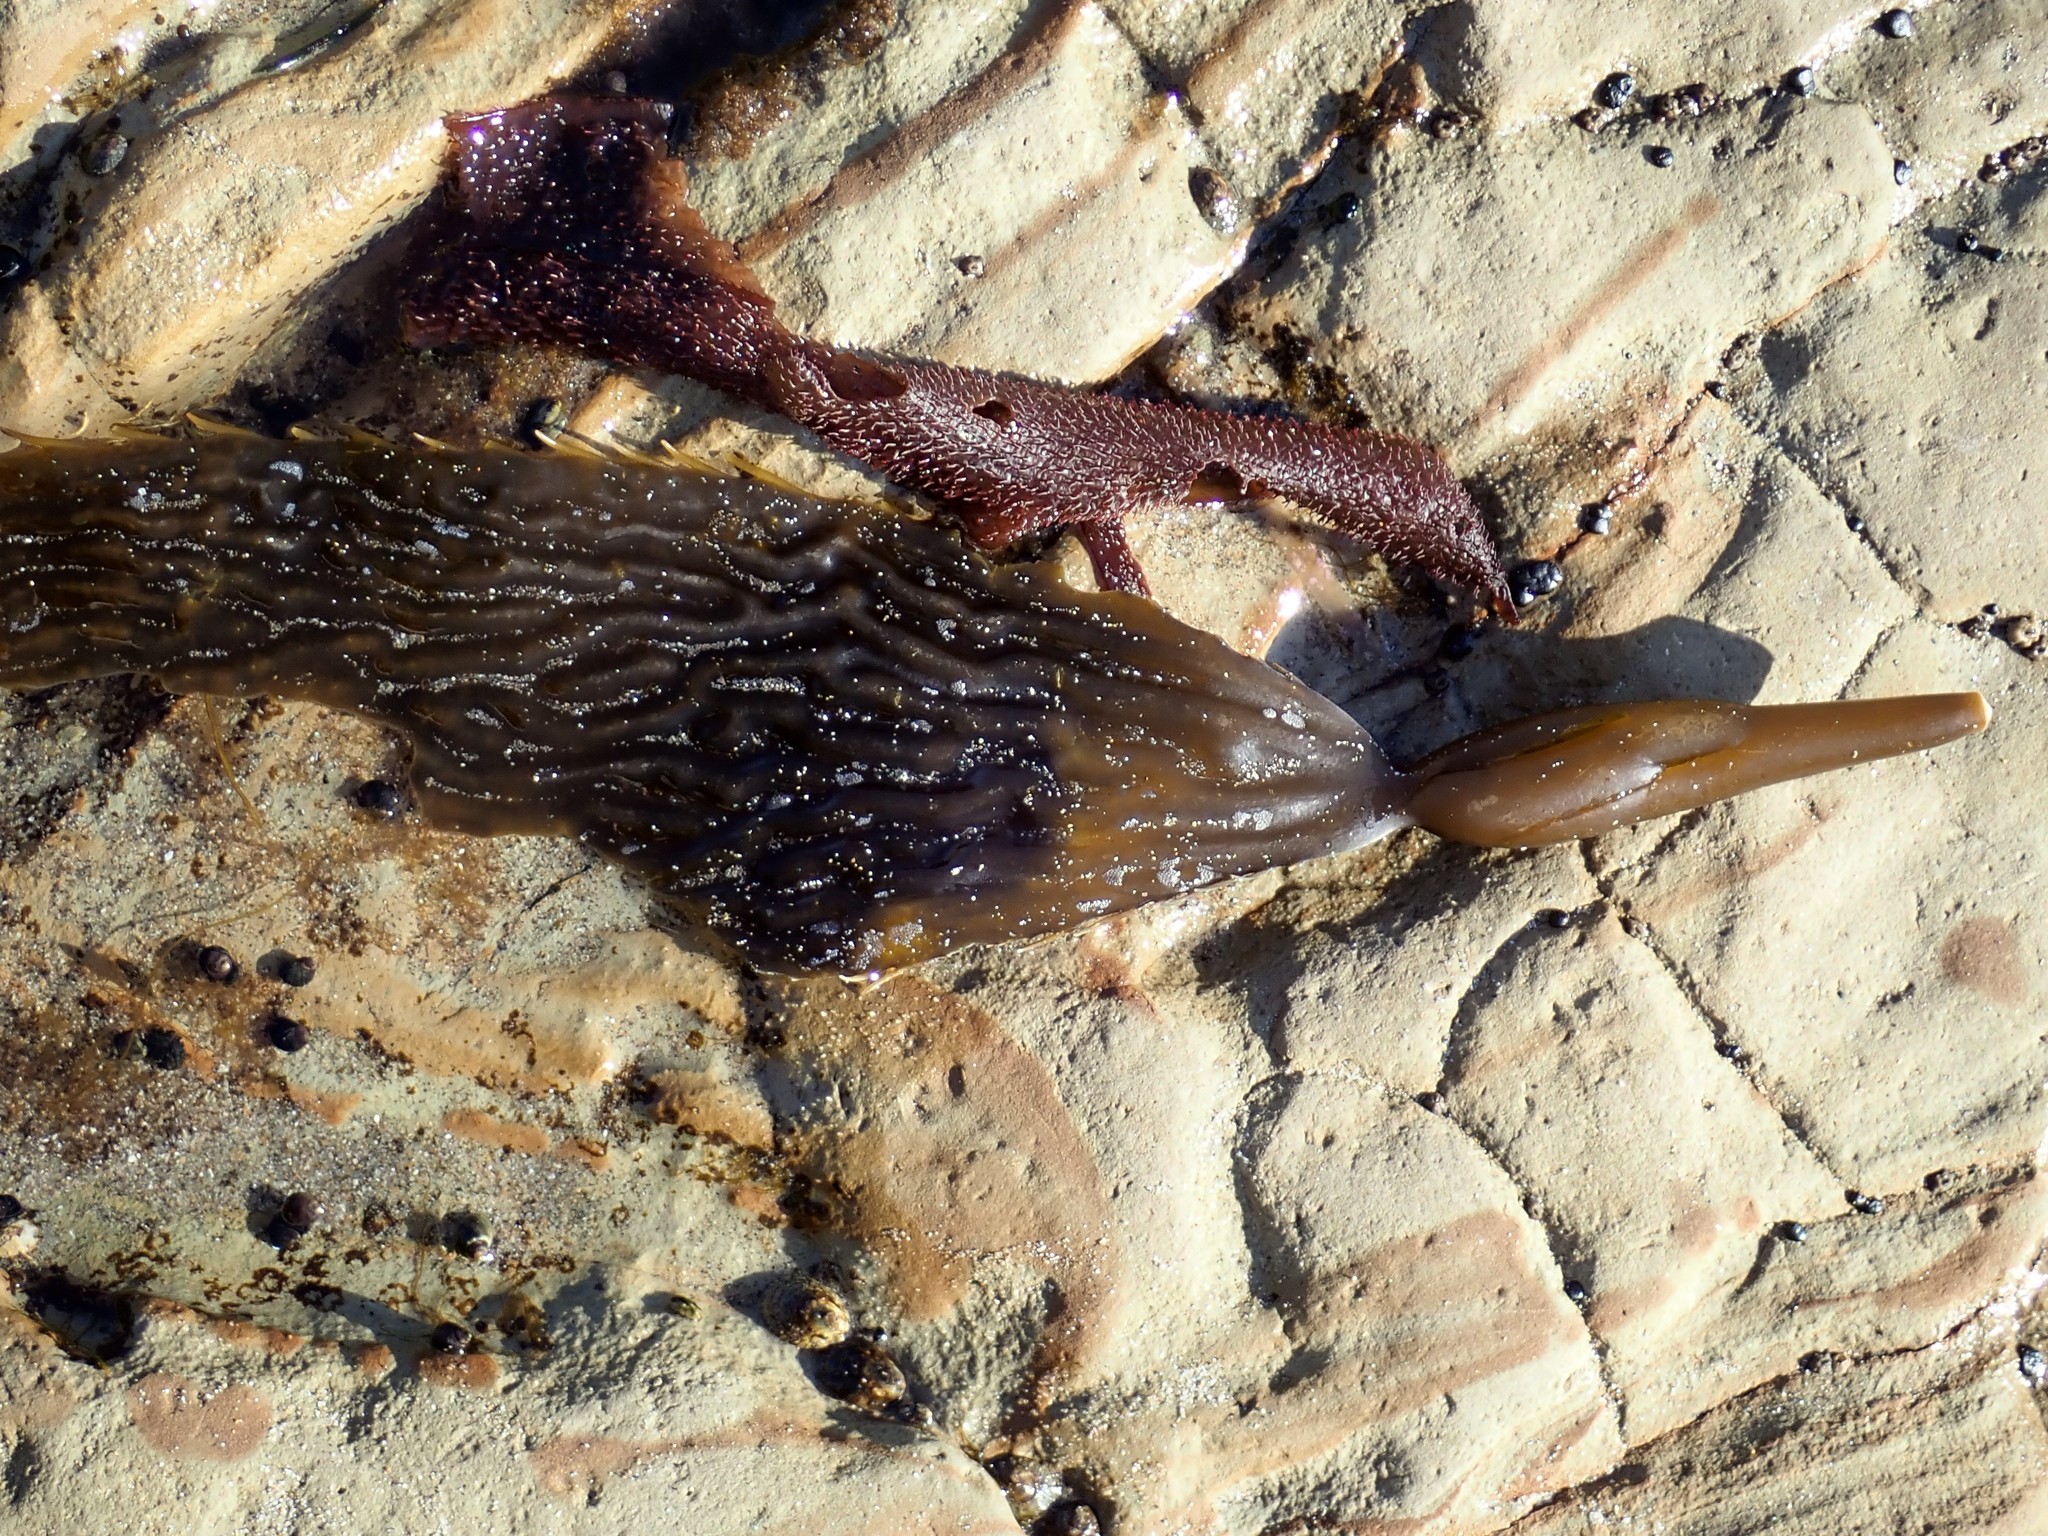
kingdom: Chromista
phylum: Ochrophyta
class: Phaeophyceae
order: Laminariales
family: Laminariaceae
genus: Macrocystis
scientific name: Macrocystis pyrifera
